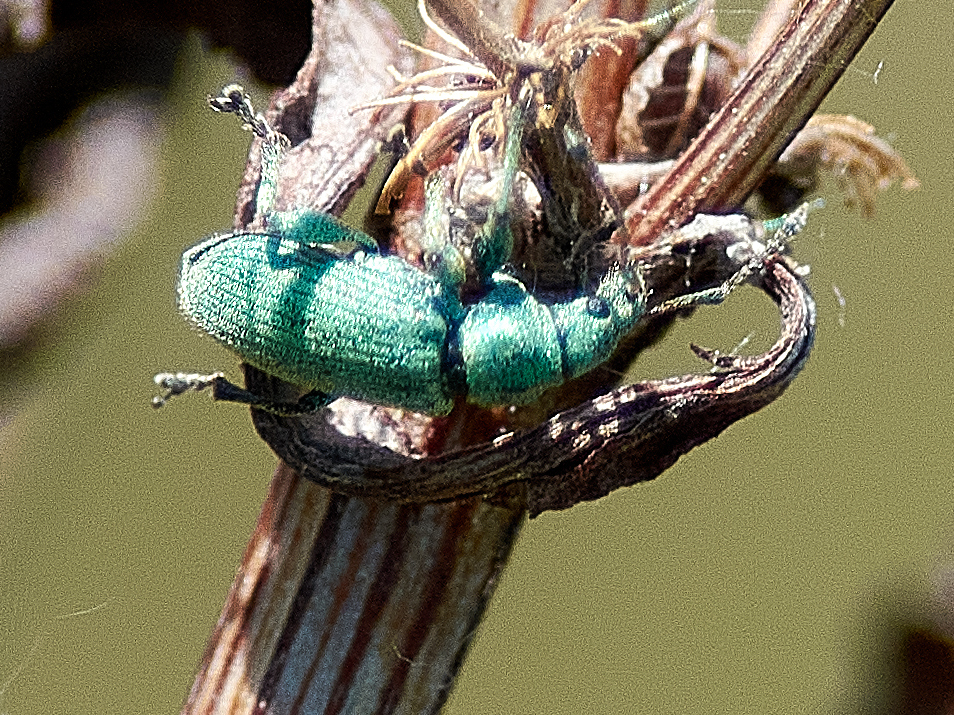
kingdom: Animalia
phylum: Arthropoda
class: Insecta
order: Coleoptera
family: Curculionidae
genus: Phyllobius
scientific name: Phyllobius maculicornis
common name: Green leaf weevil
